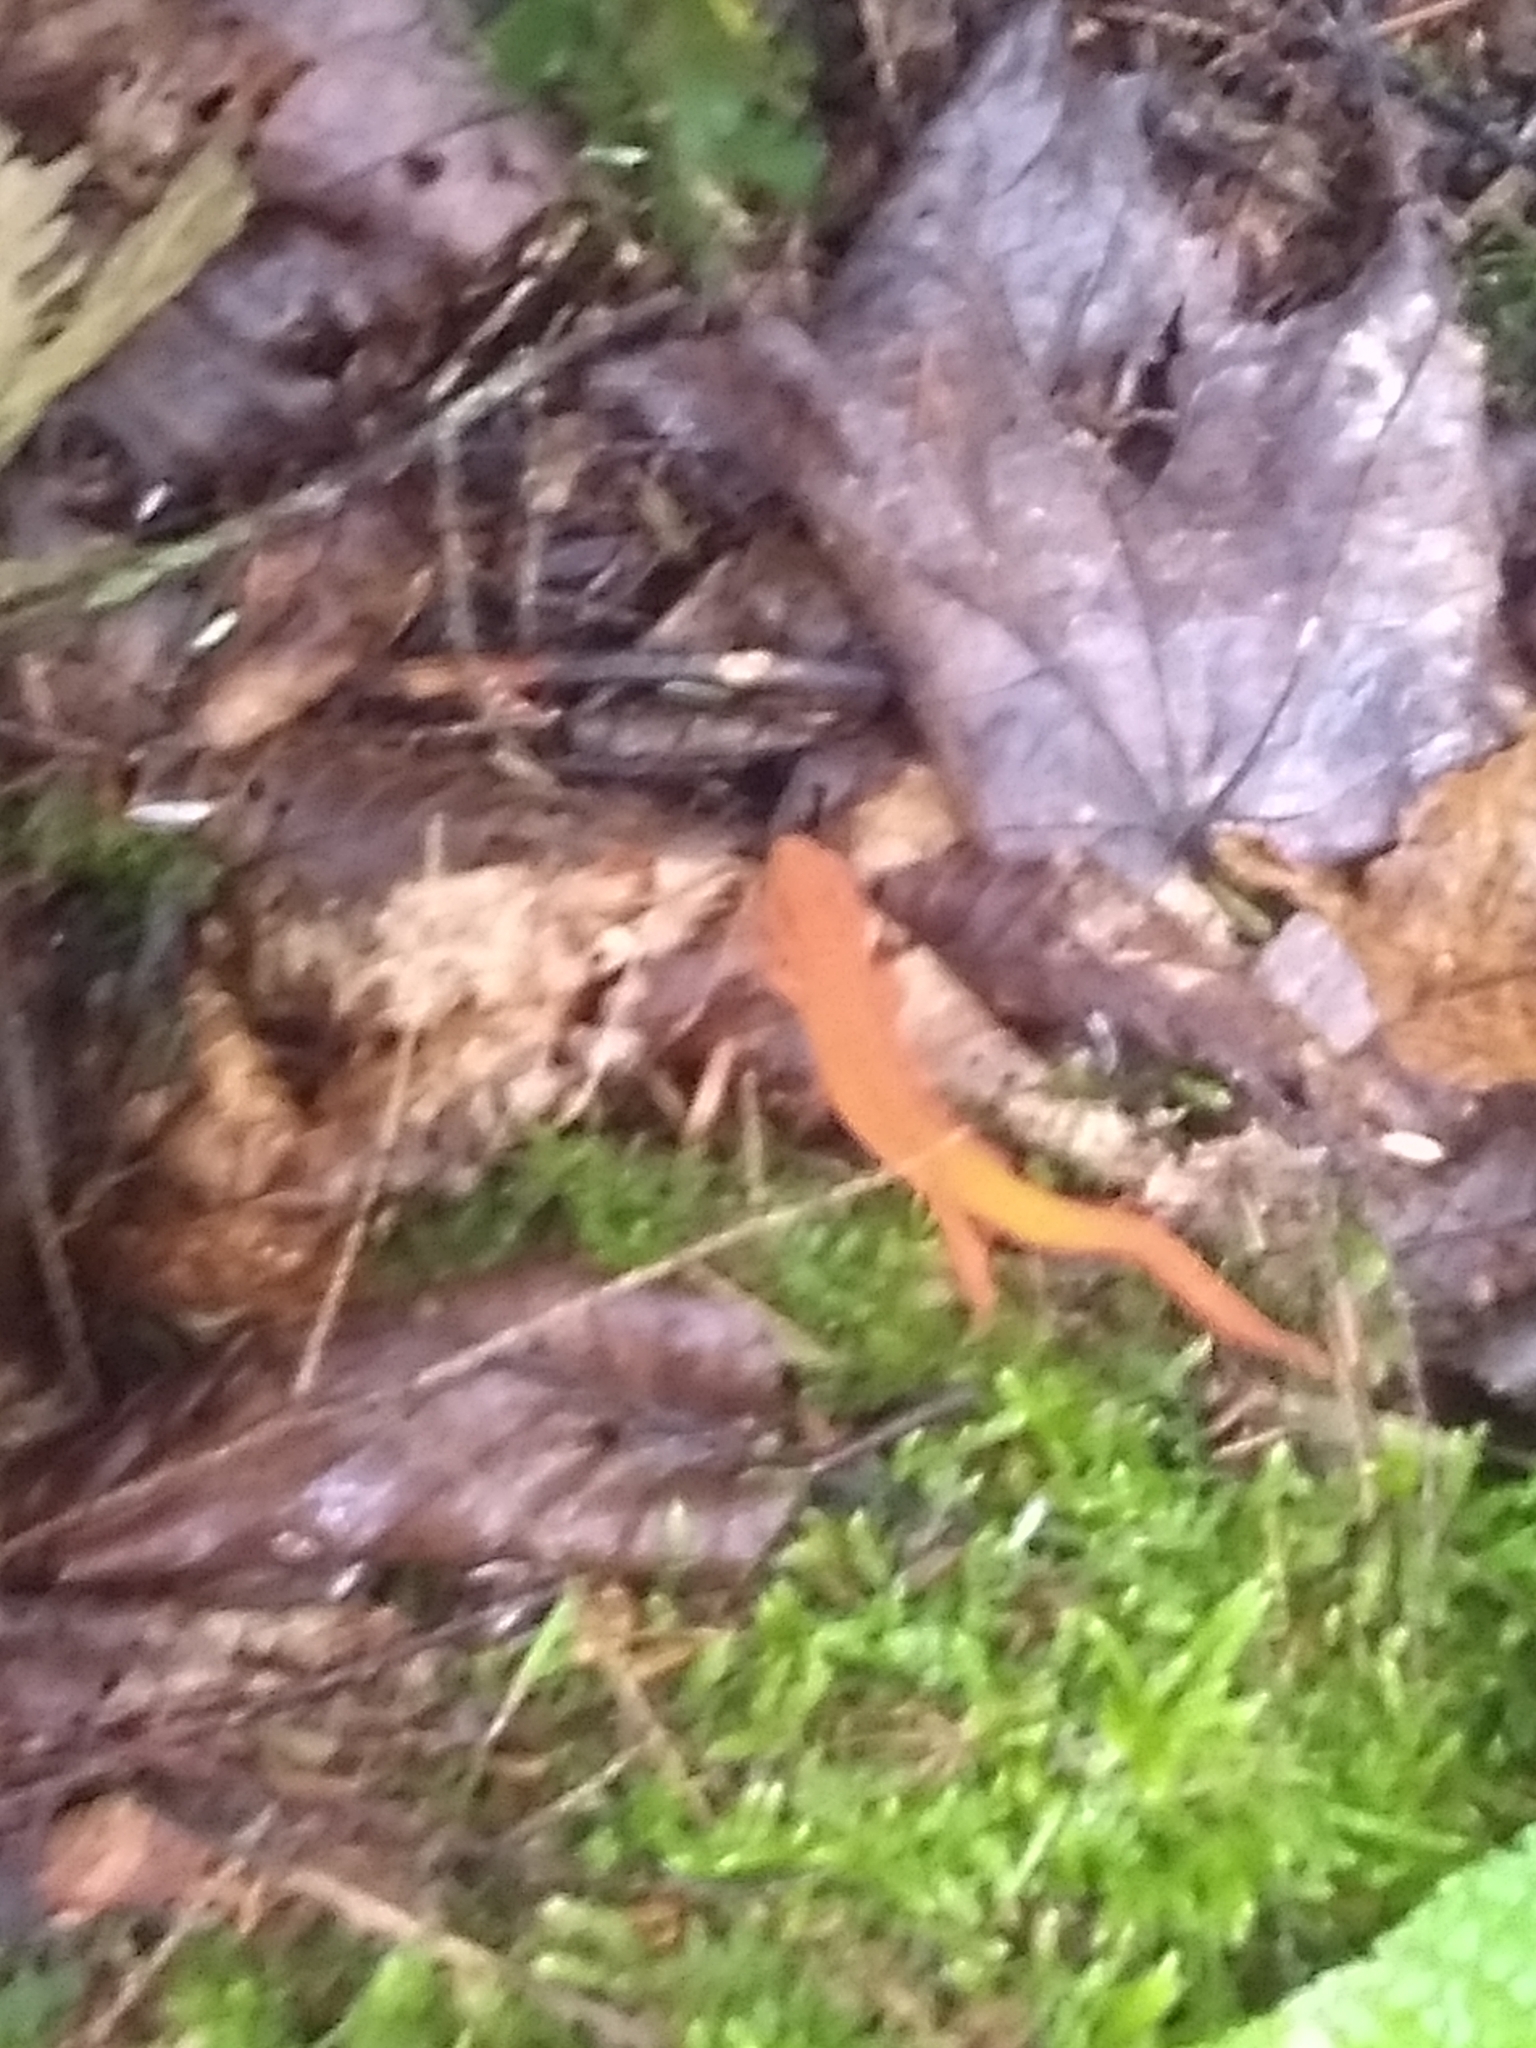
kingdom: Animalia
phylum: Chordata
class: Amphibia
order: Caudata
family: Salamandridae
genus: Notophthalmus
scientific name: Notophthalmus viridescens
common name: Eastern newt
